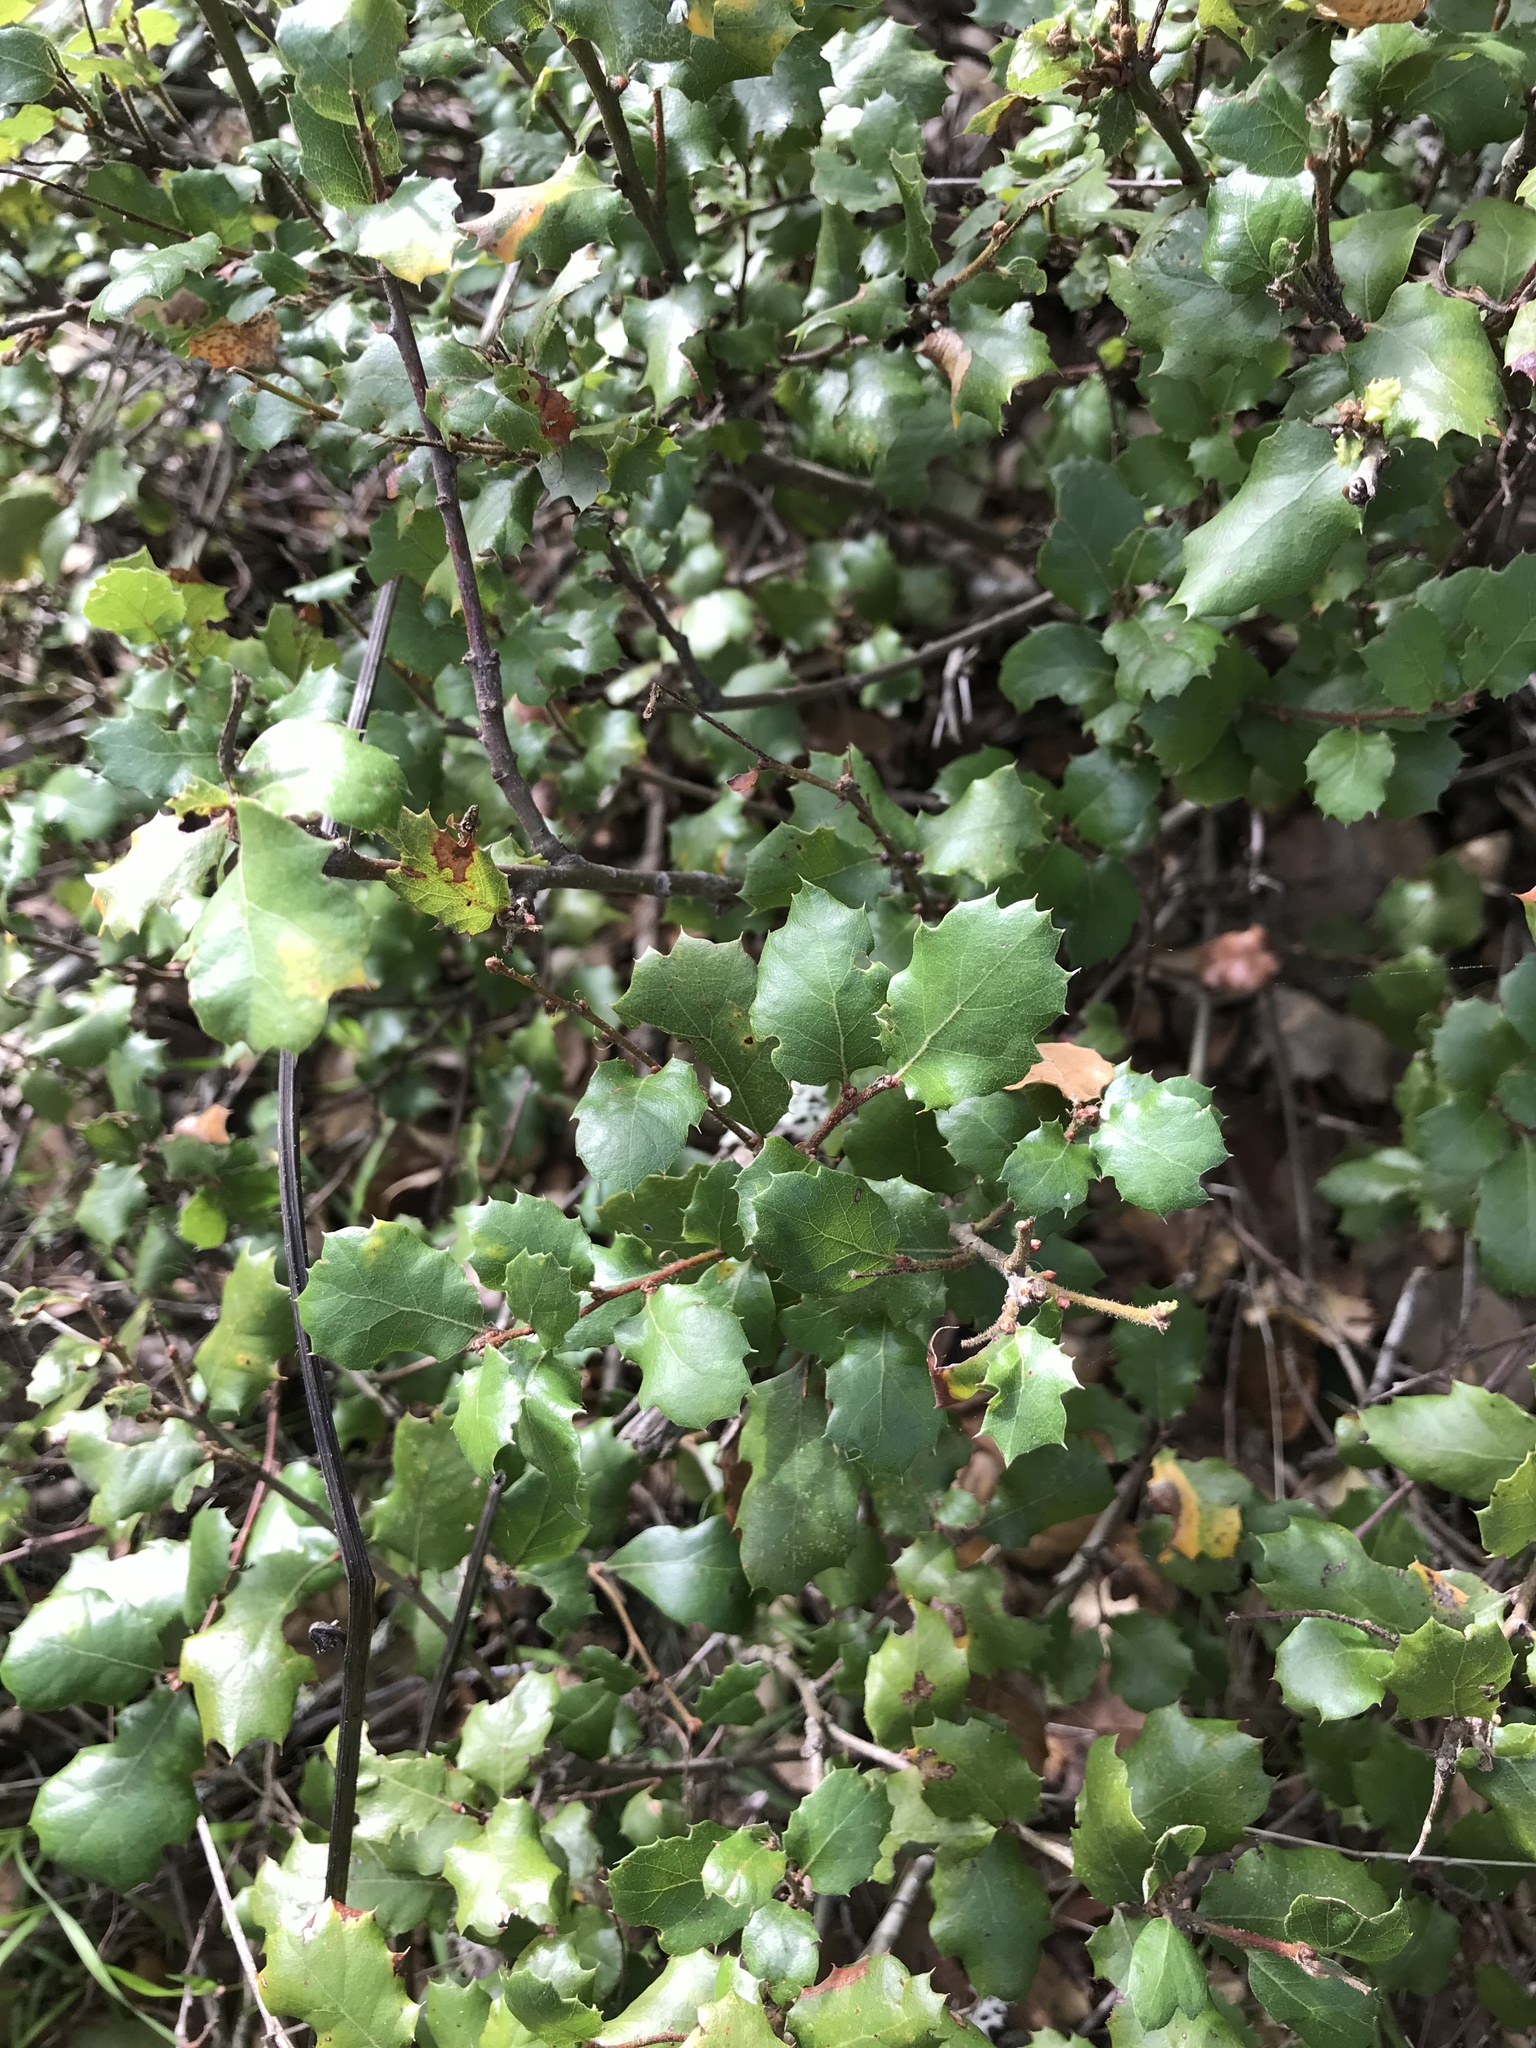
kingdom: Plantae
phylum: Tracheophyta
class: Magnoliopsida
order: Fagales
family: Fagaceae
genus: Quercus
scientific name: Quercus berberidifolia
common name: California scrub oak
